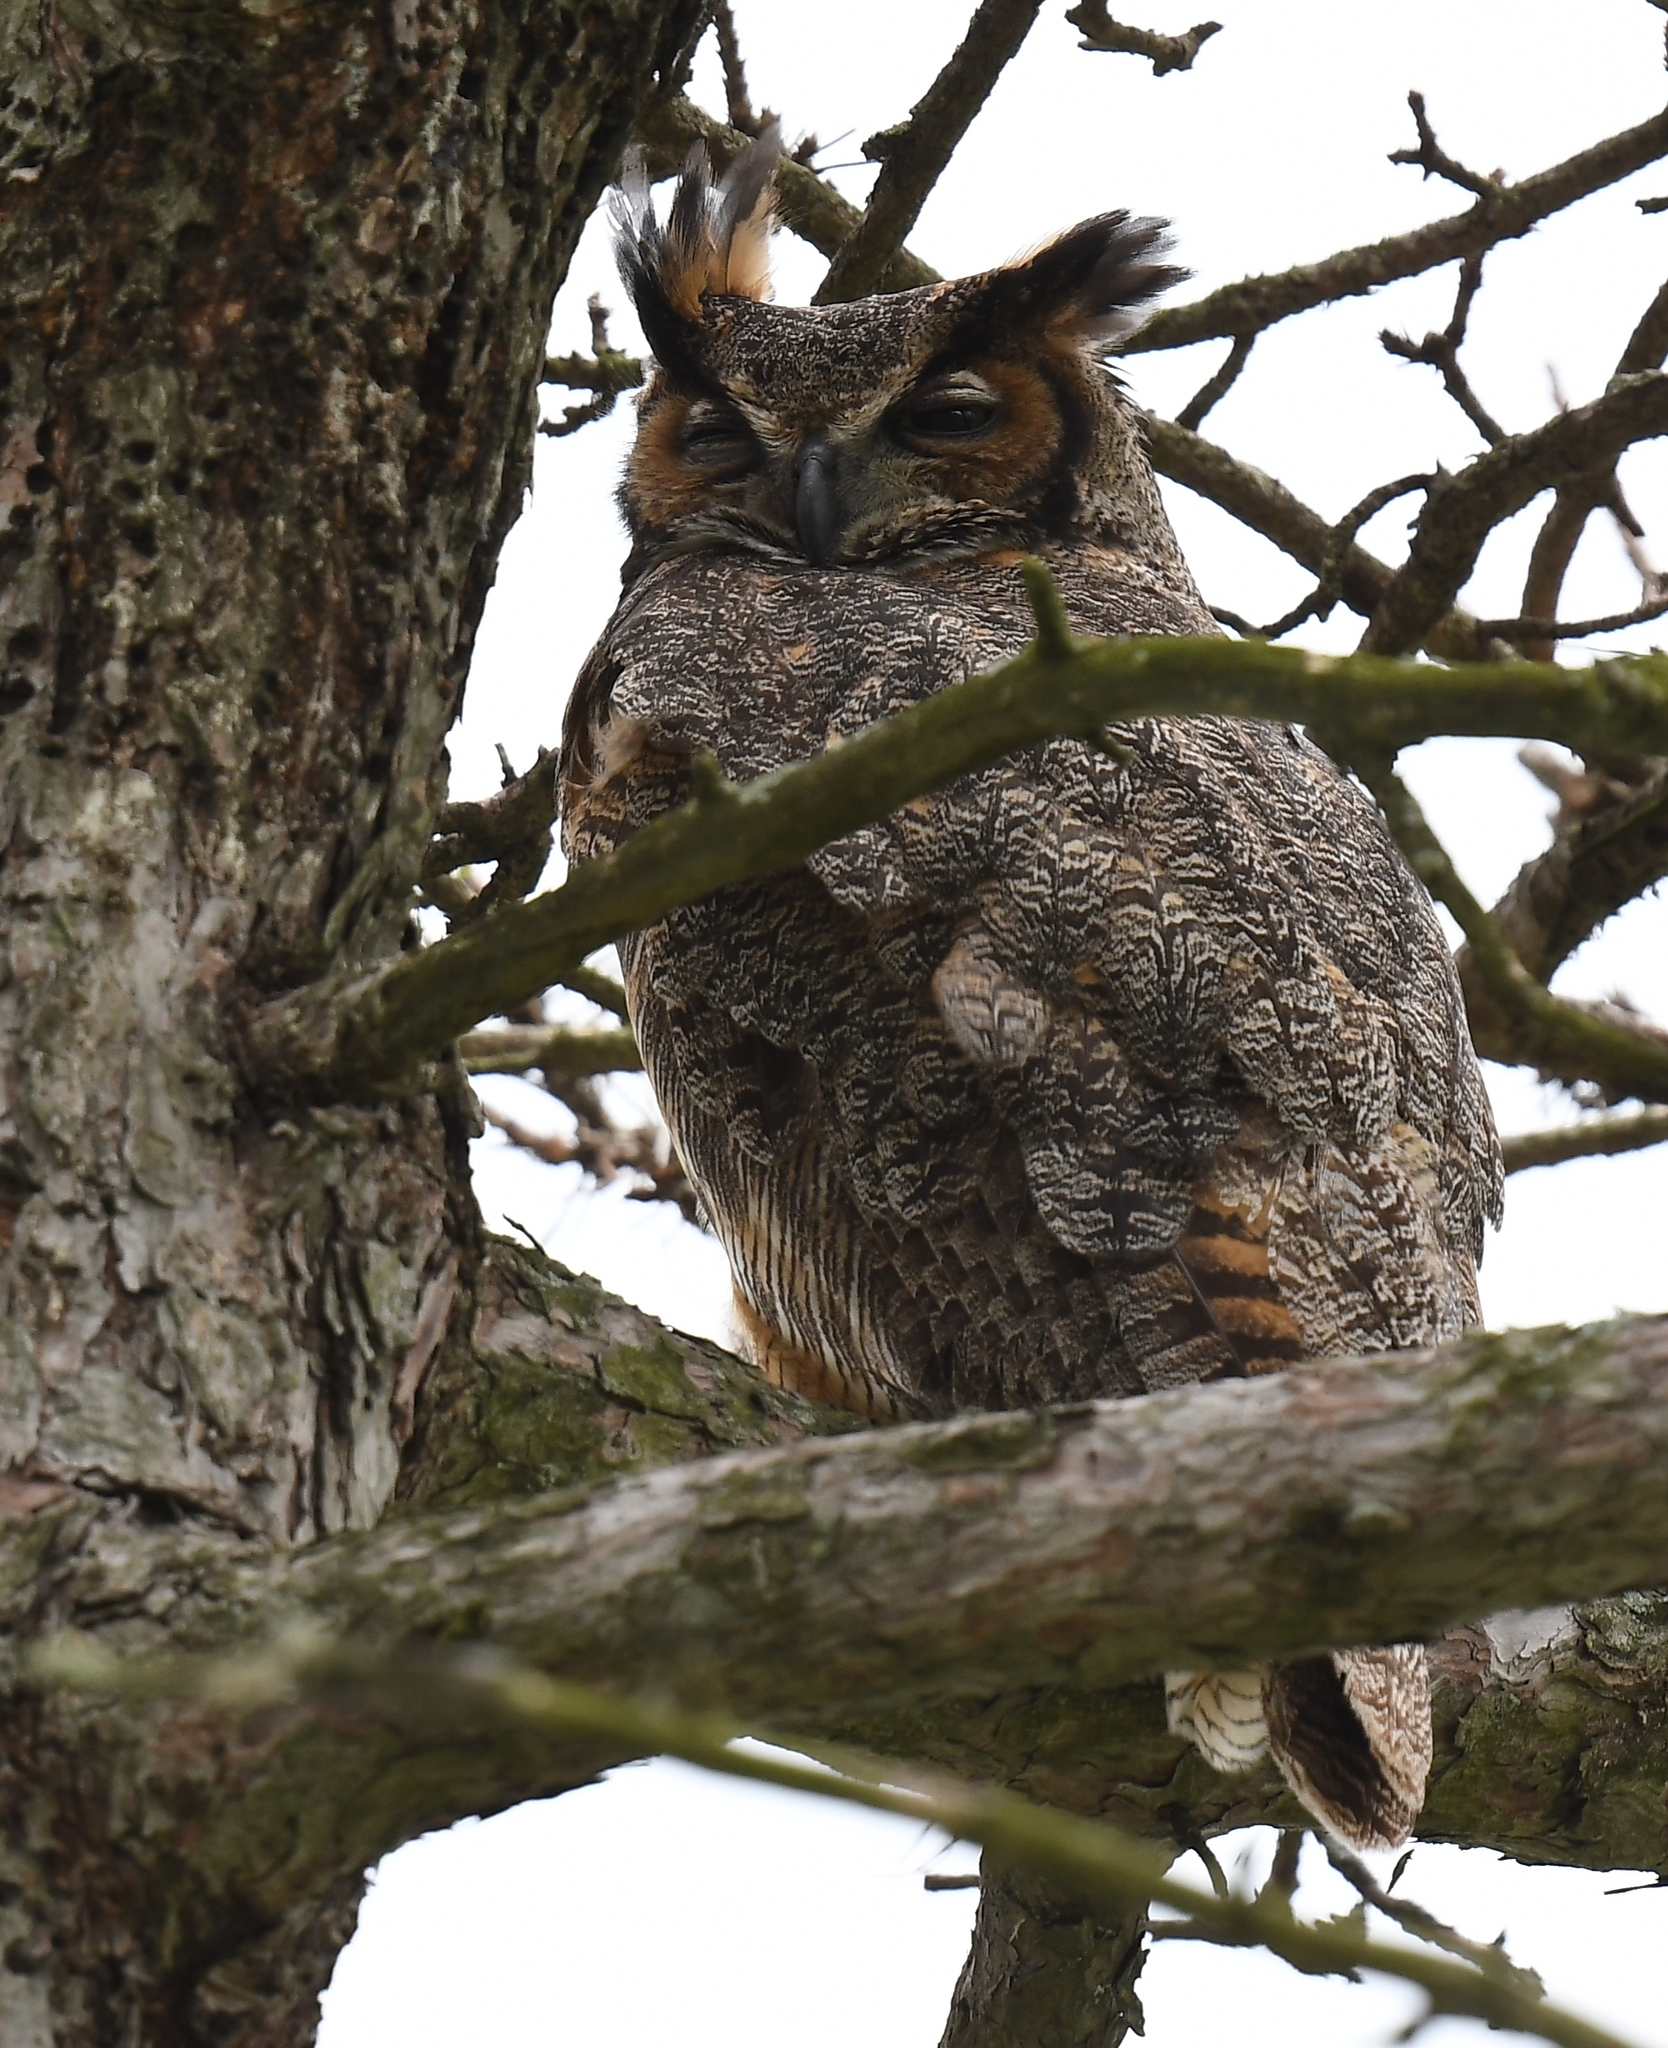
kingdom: Animalia
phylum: Chordata
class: Aves
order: Strigiformes
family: Strigidae
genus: Bubo
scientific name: Bubo virginianus
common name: Great horned owl
